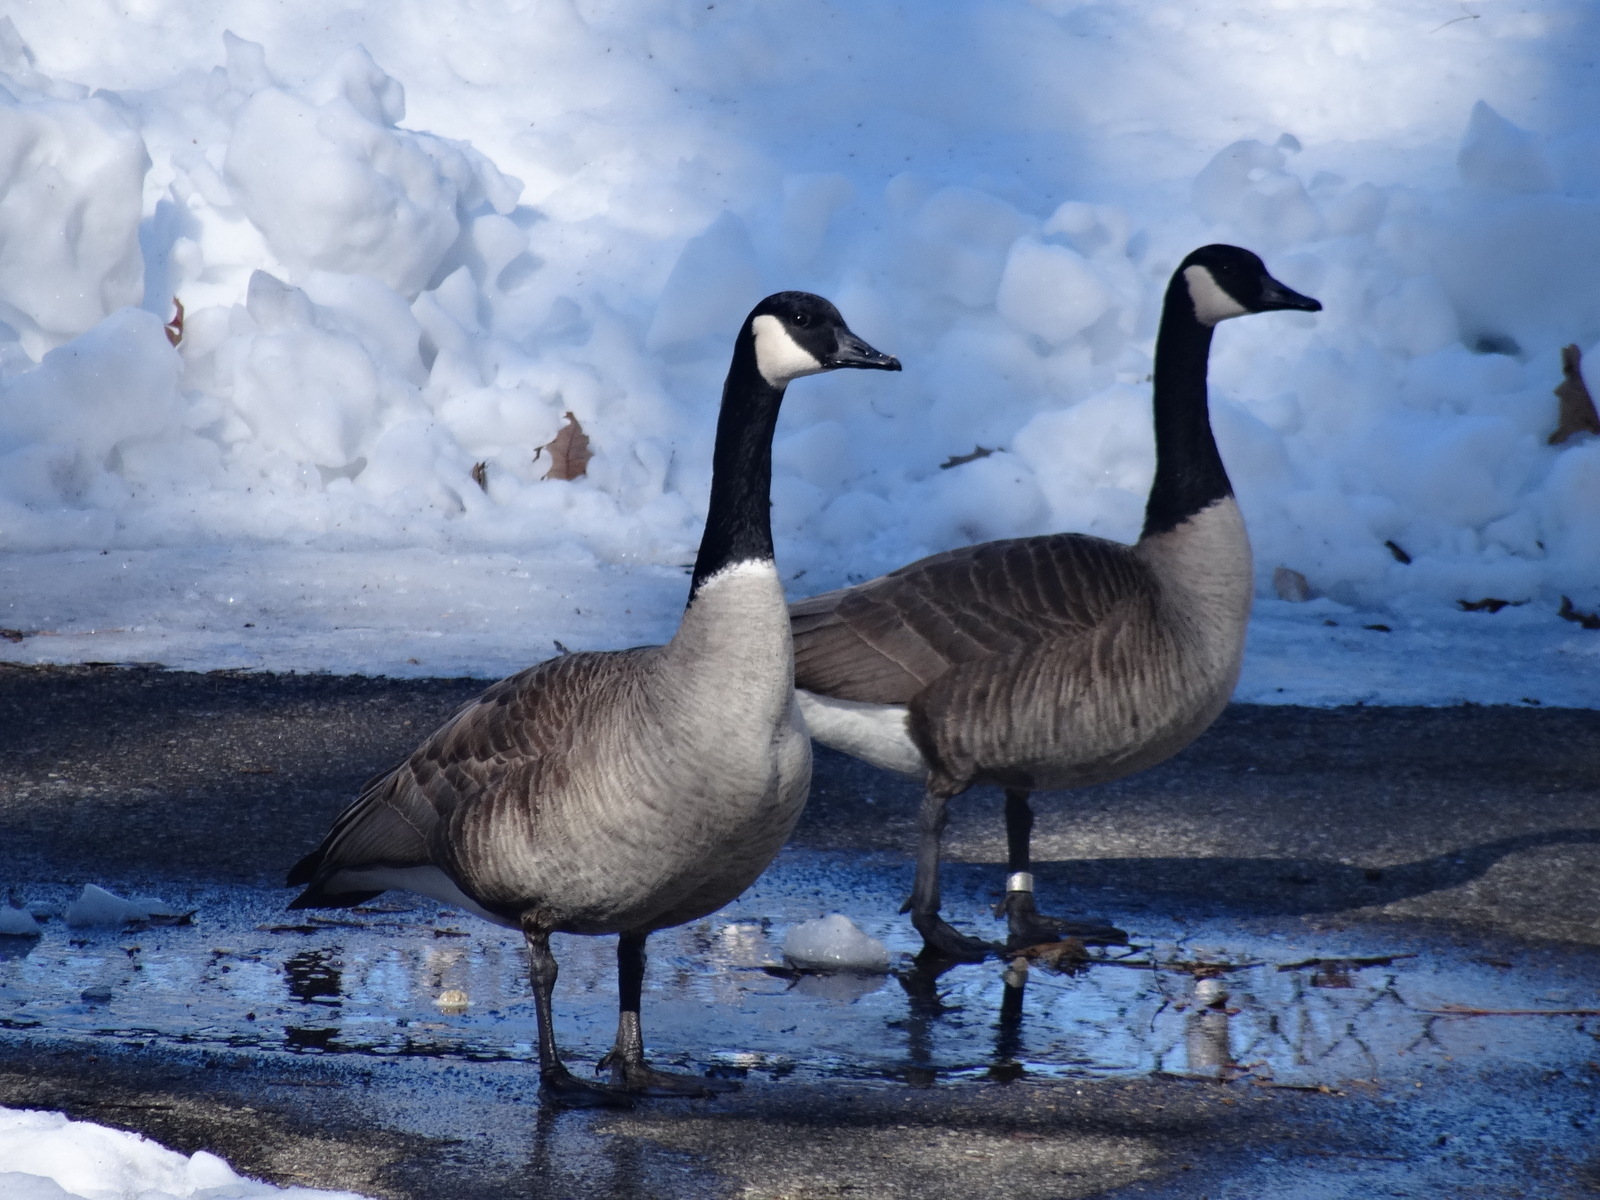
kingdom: Animalia
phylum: Chordata
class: Aves
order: Anseriformes
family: Anatidae
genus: Branta
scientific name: Branta canadensis
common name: Canada goose
